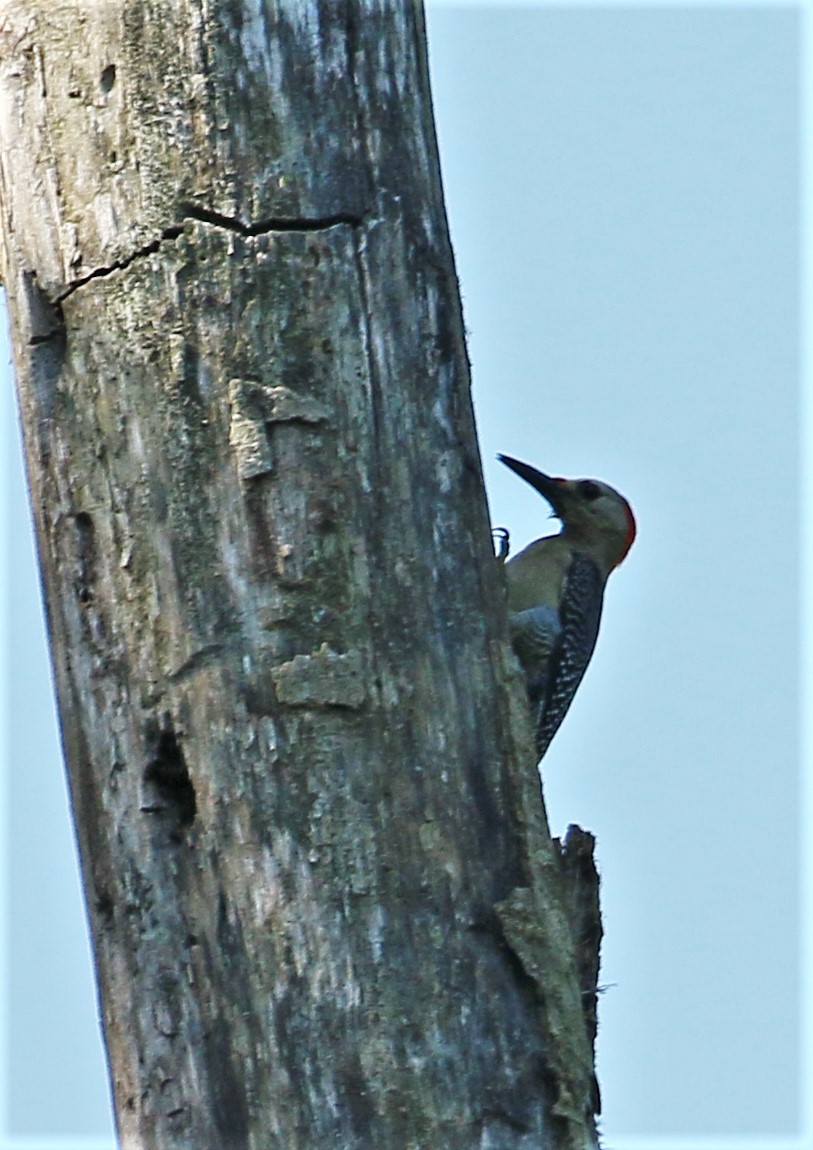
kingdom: Animalia
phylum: Chordata
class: Aves
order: Piciformes
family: Picidae
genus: Melanerpes
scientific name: Melanerpes aurifrons
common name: Golden-fronted woodpecker
